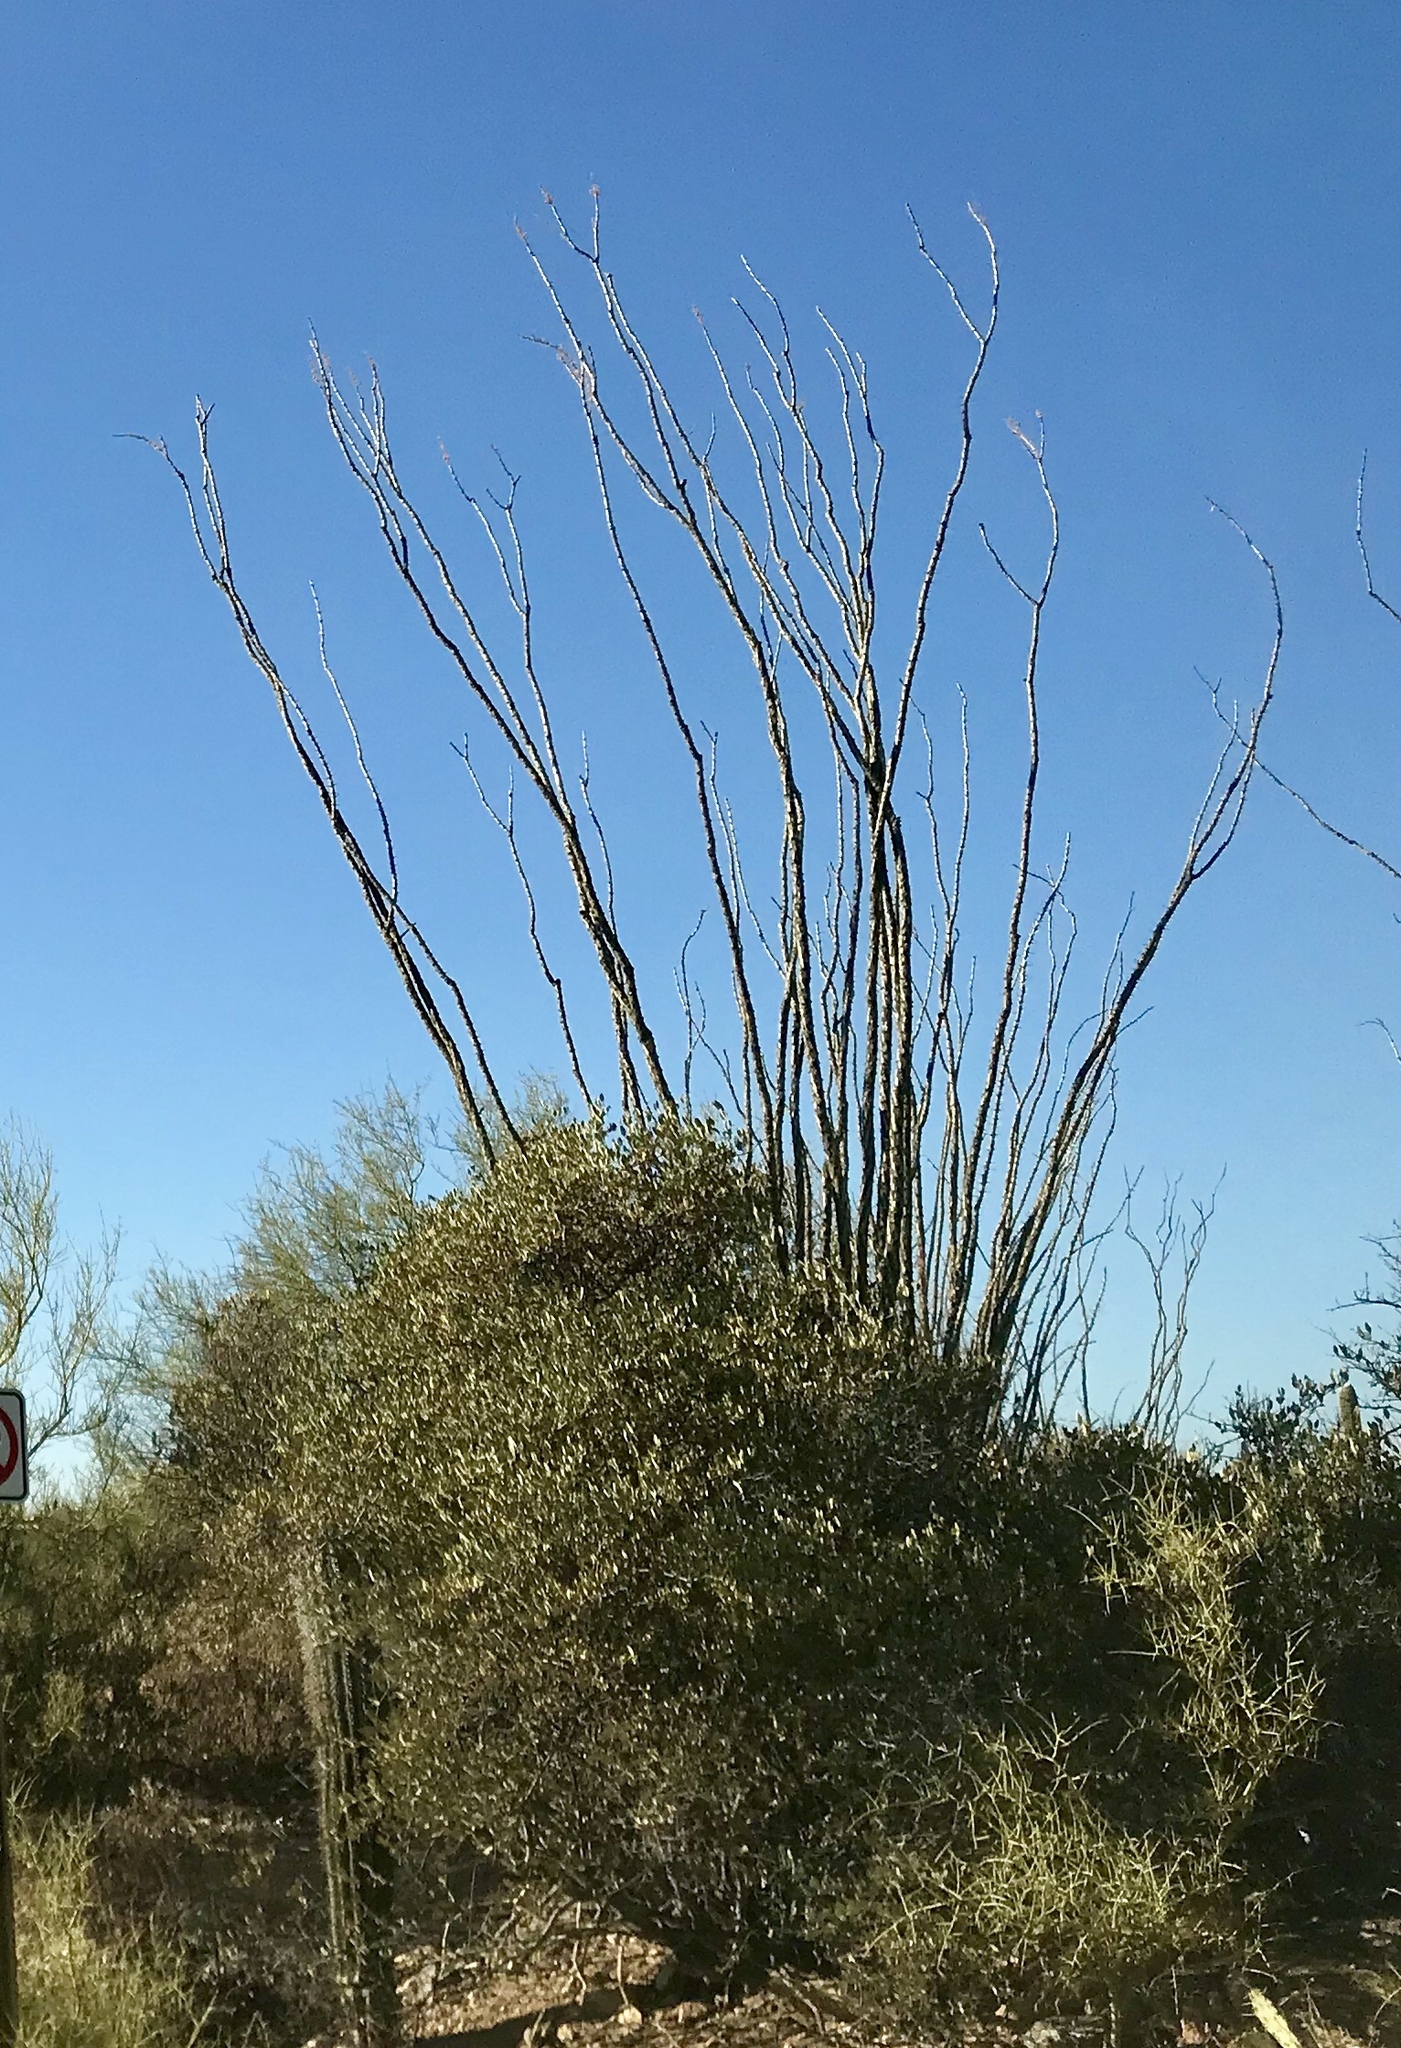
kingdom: Plantae
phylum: Tracheophyta
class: Magnoliopsida
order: Ericales
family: Fouquieriaceae
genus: Fouquieria
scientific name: Fouquieria splendens
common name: Vine-cactus
